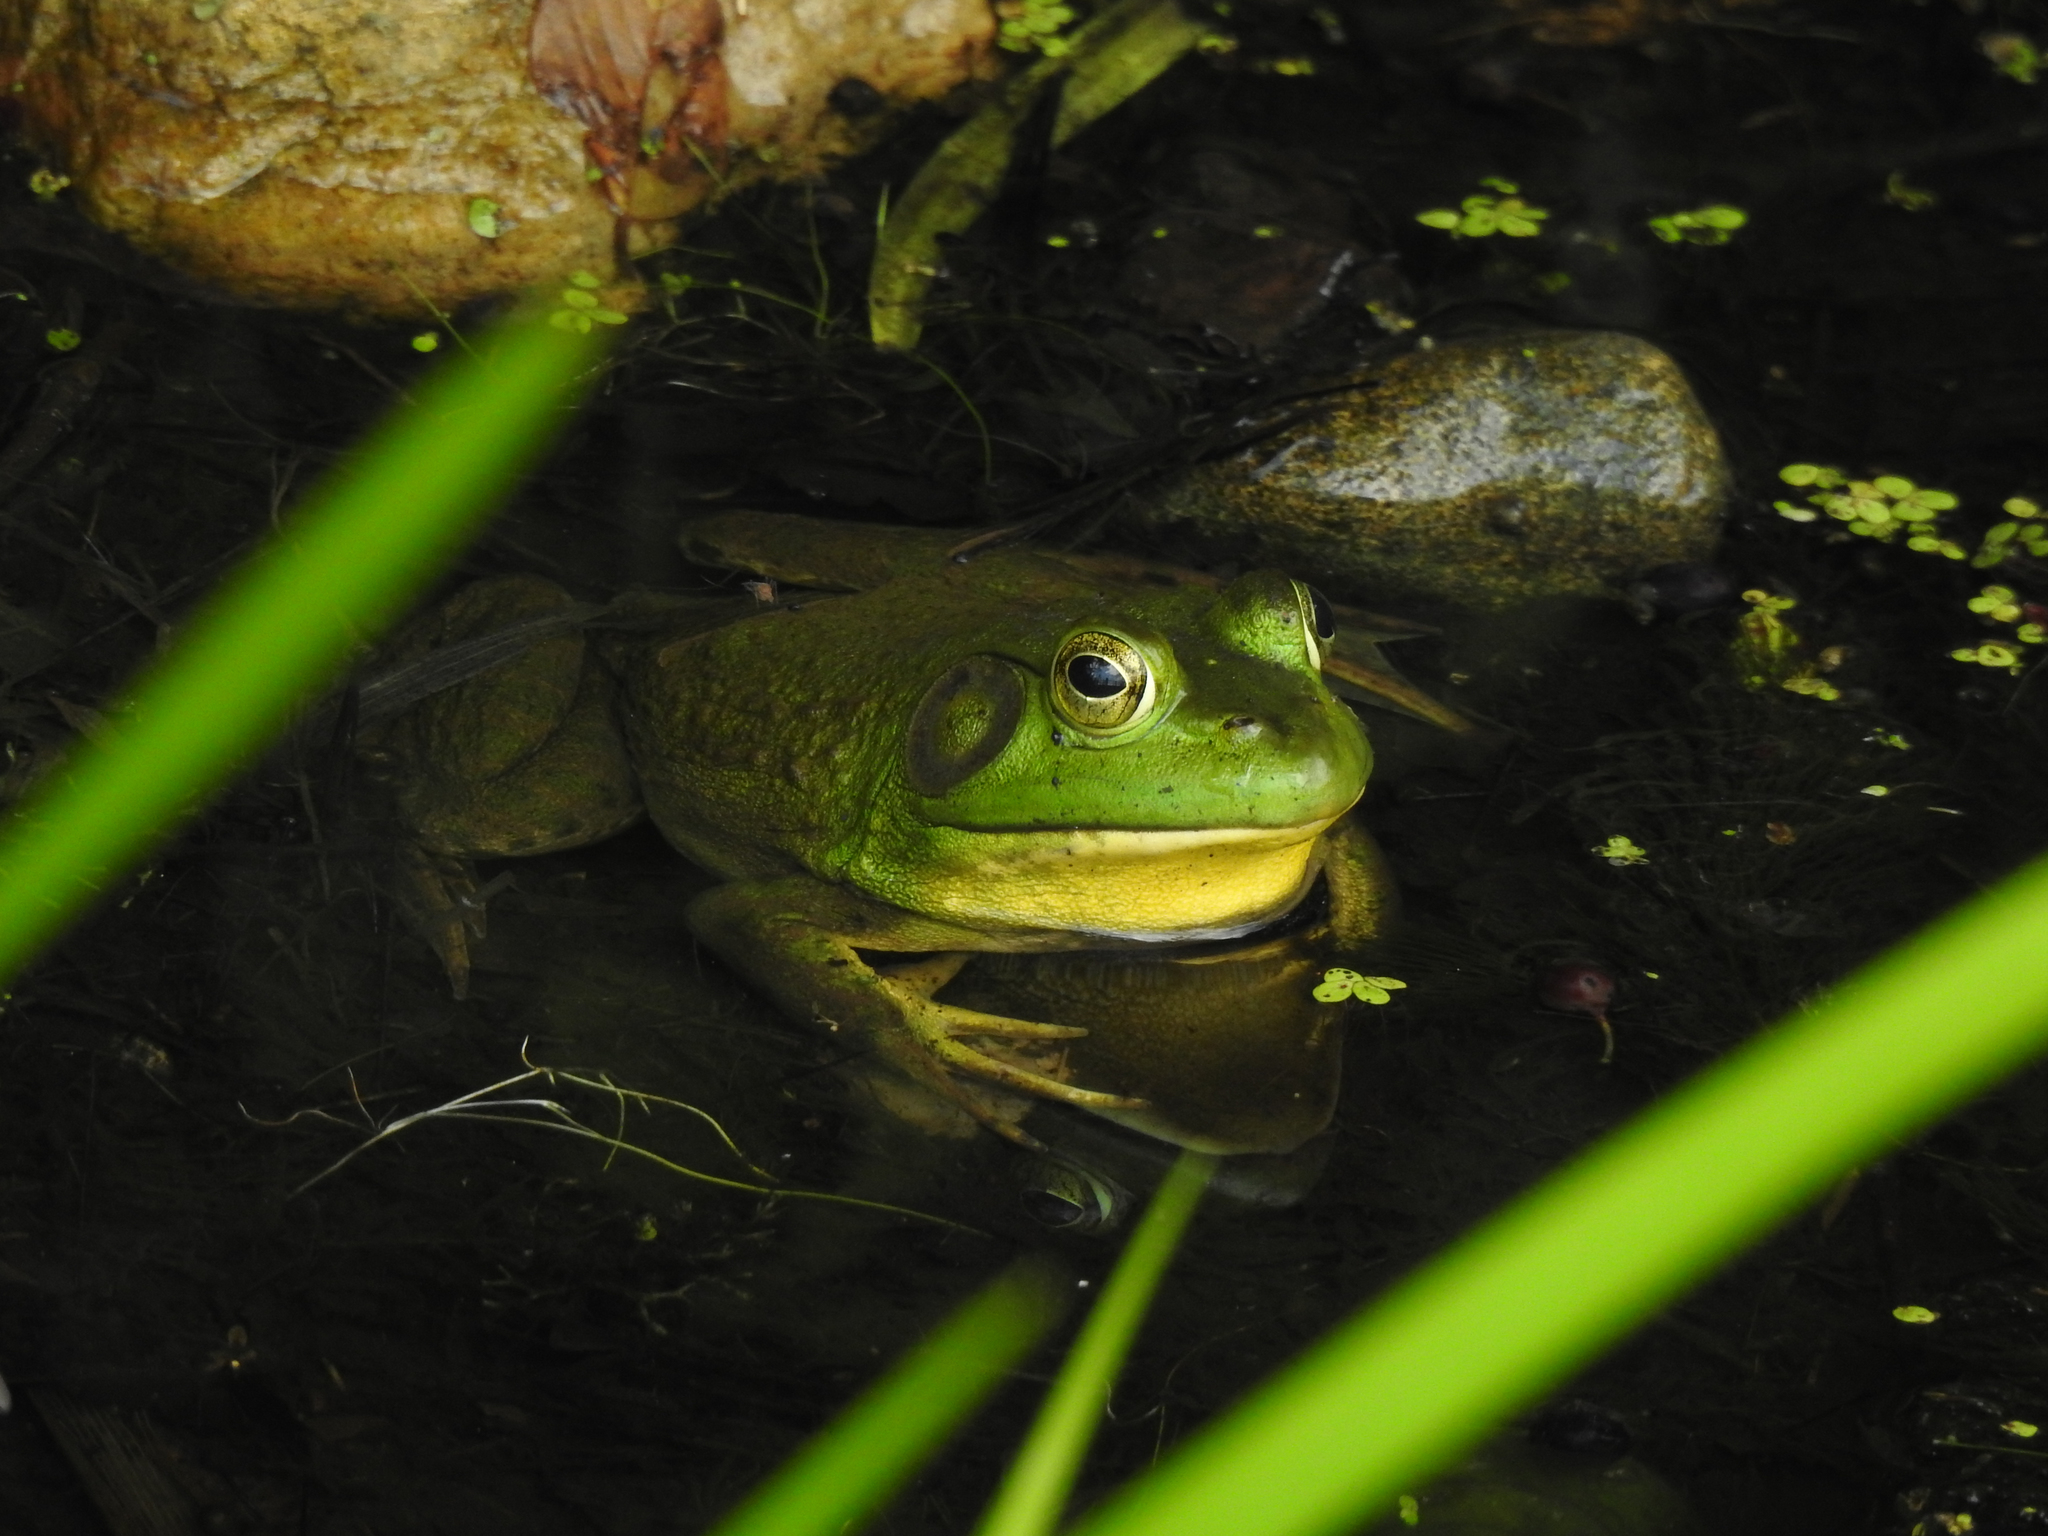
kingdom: Animalia
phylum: Chordata
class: Amphibia
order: Anura
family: Ranidae
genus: Lithobates
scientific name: Lithobates catesbeianus
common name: American bullfrog
